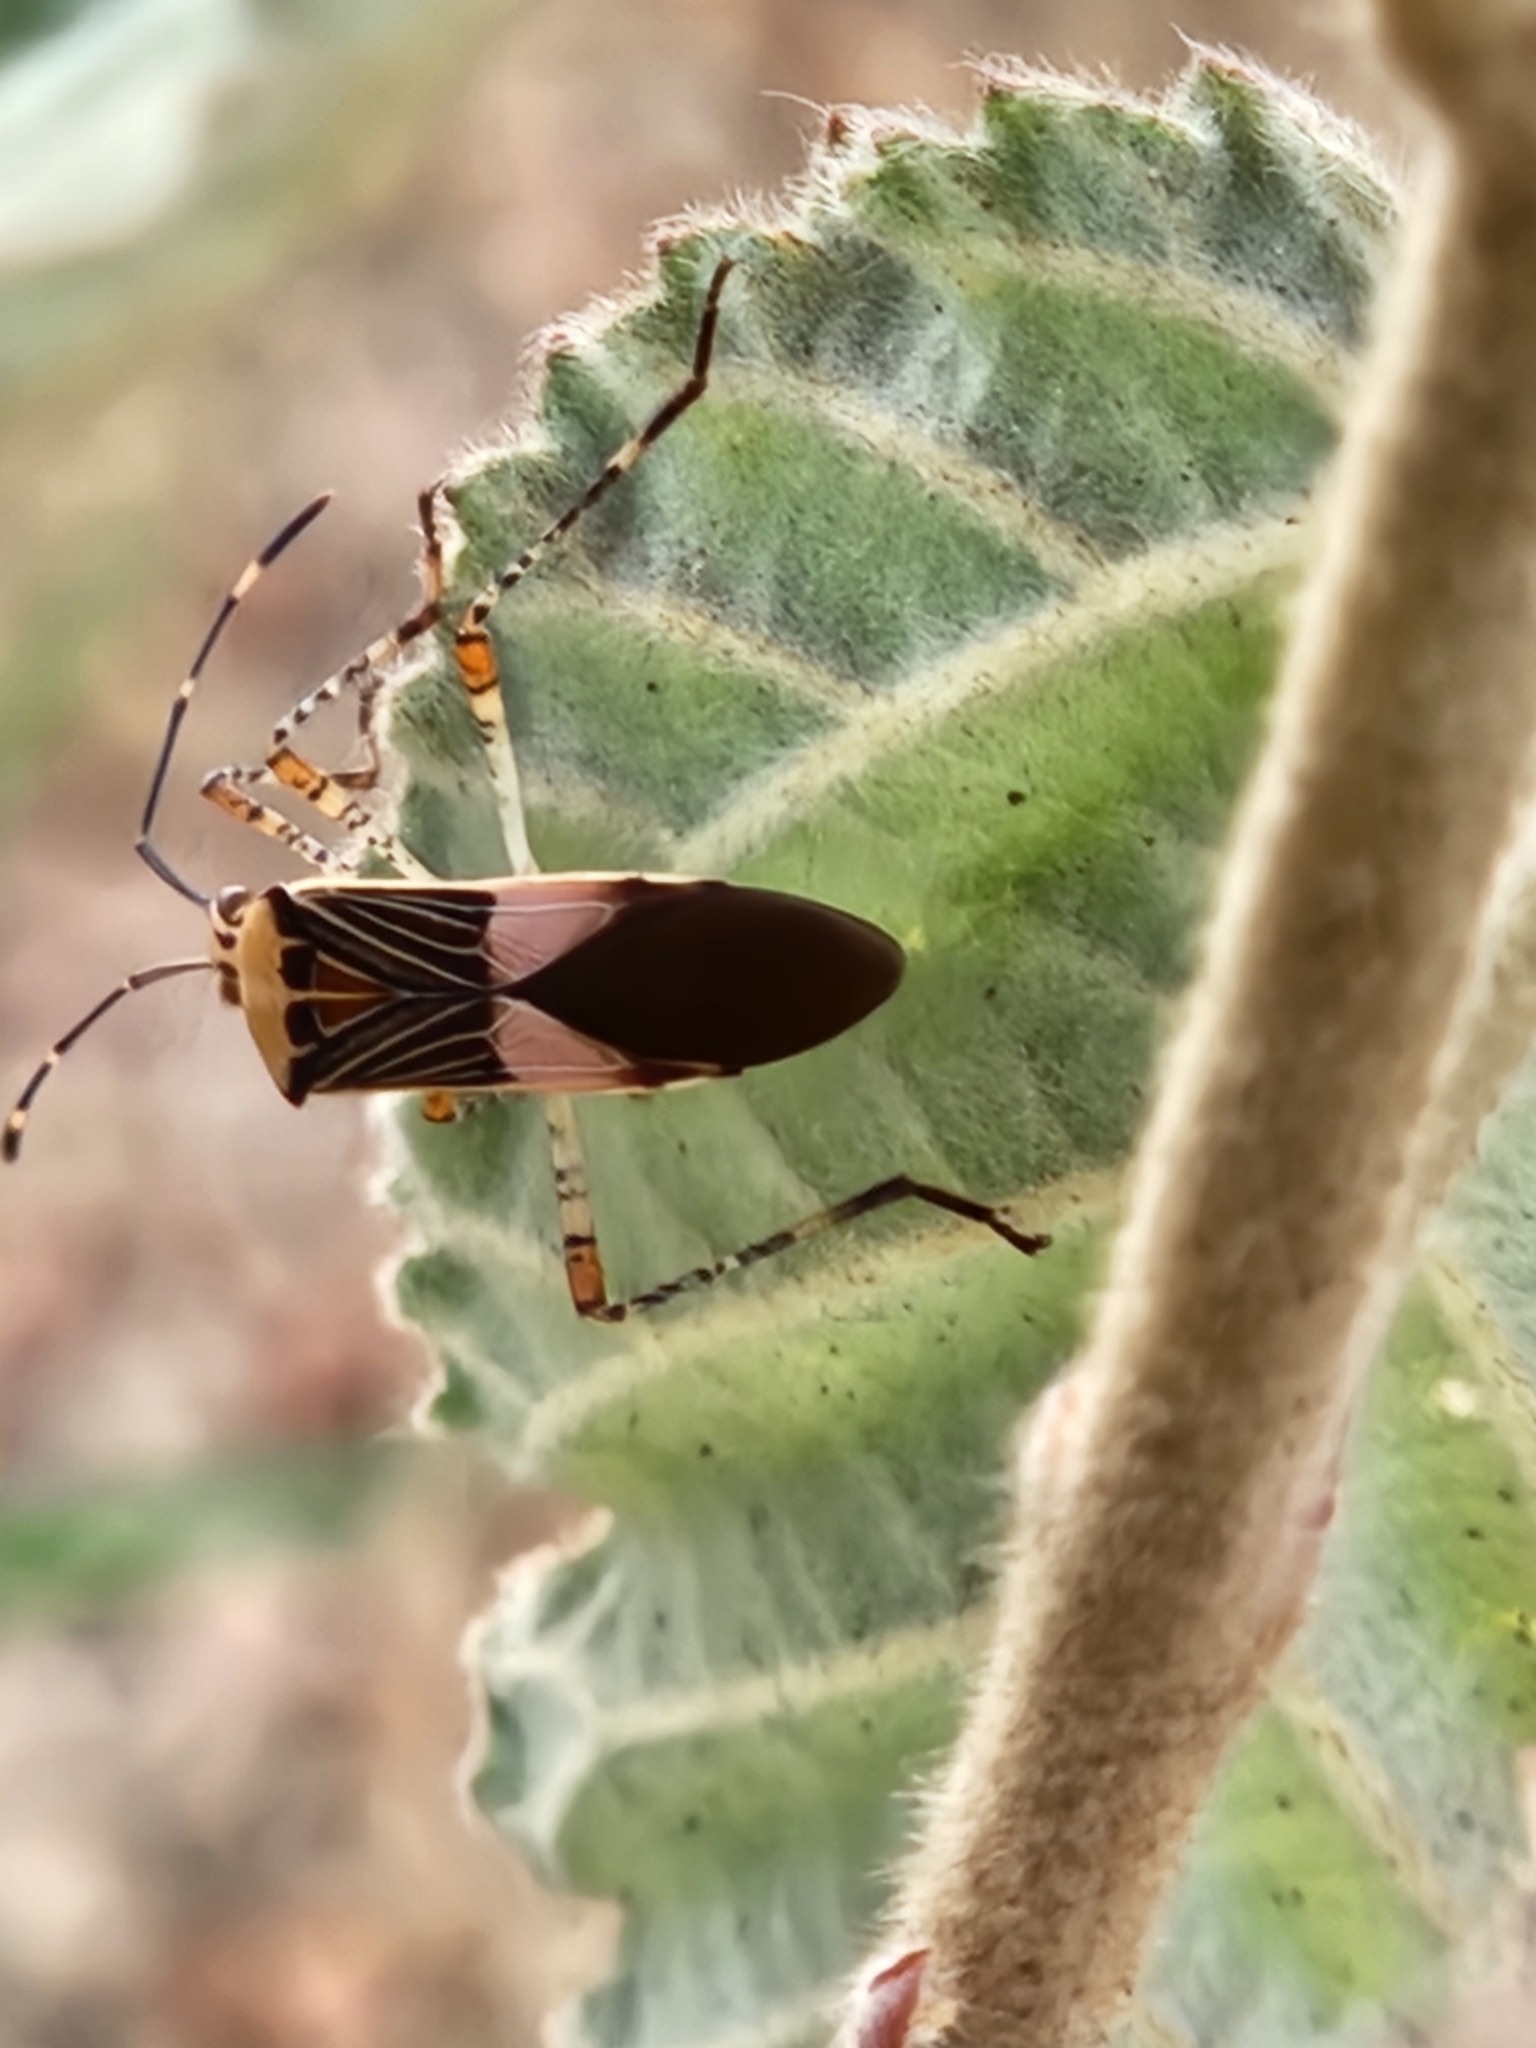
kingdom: Animalia
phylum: Arthropoda
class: Insecta
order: Hemiptera
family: Coreidae
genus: Hypselonotus
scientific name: Hypselonotus fulvus
